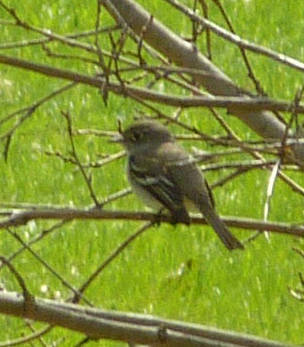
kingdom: Animalia
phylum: Chordata
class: Aves
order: Passeriformes
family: Tyrannidae
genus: Empidonax
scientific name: Empidonax minimus
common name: Least flycatcher
